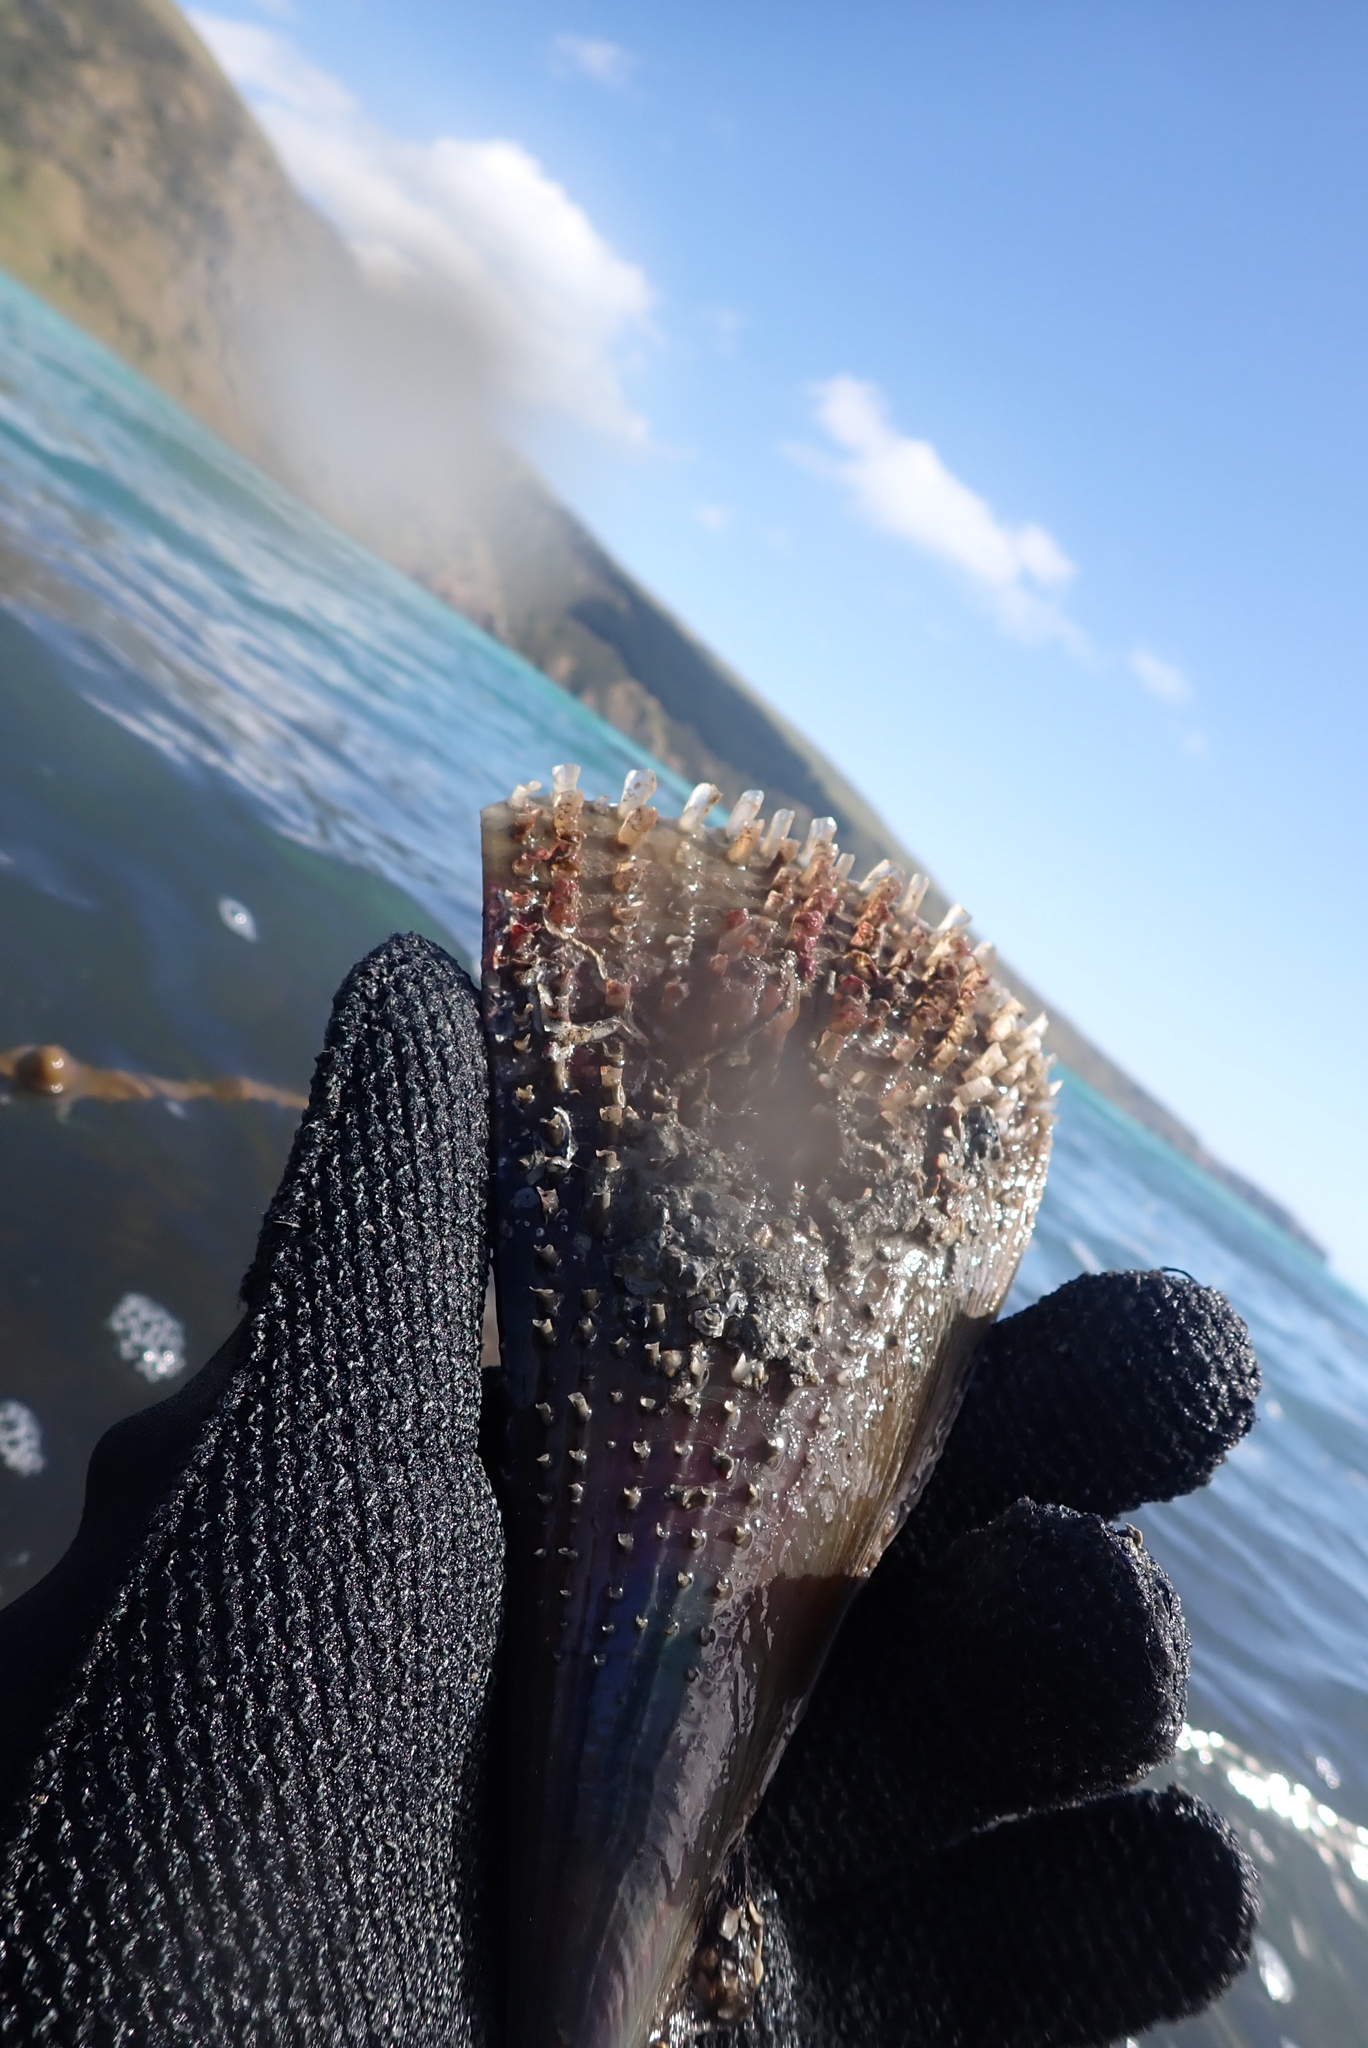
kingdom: Animalia
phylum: Mollusca
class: Bivalvia
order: Ostreida
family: Pinnidae
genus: Atrina
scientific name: Atrina zelandica
